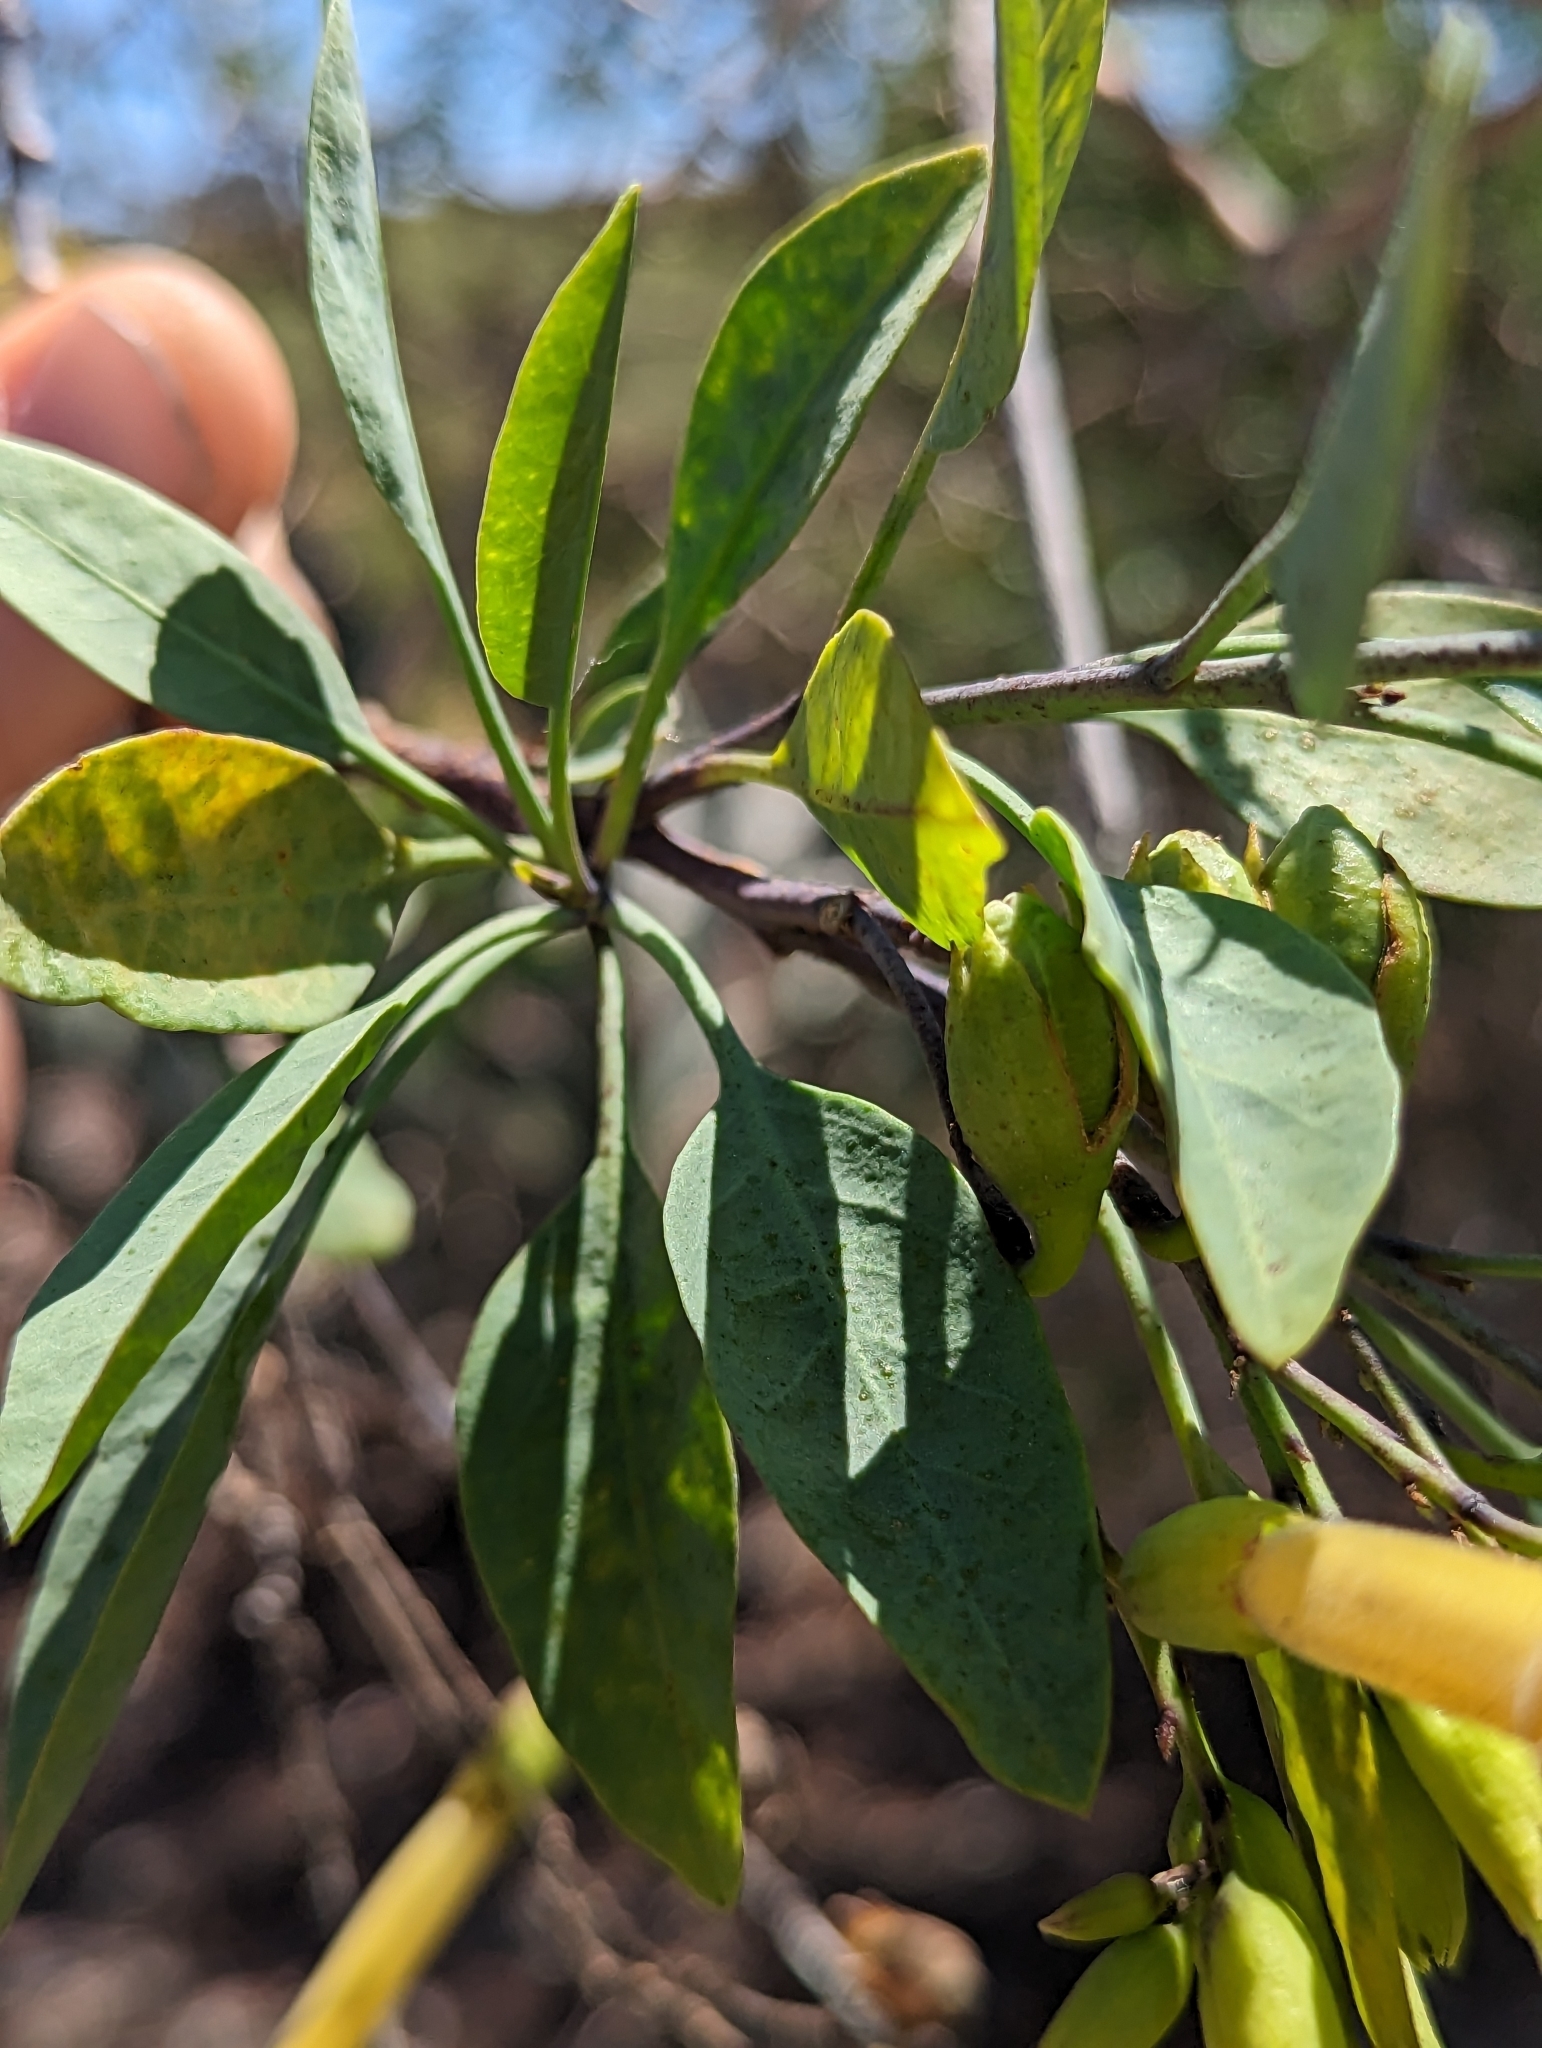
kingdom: Plantae
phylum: Tracheophyta
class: Magnoliopsida
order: Solanales
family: Solanaceae
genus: Nicotiana
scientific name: Nicotiana glauca
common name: Tree tobacco
